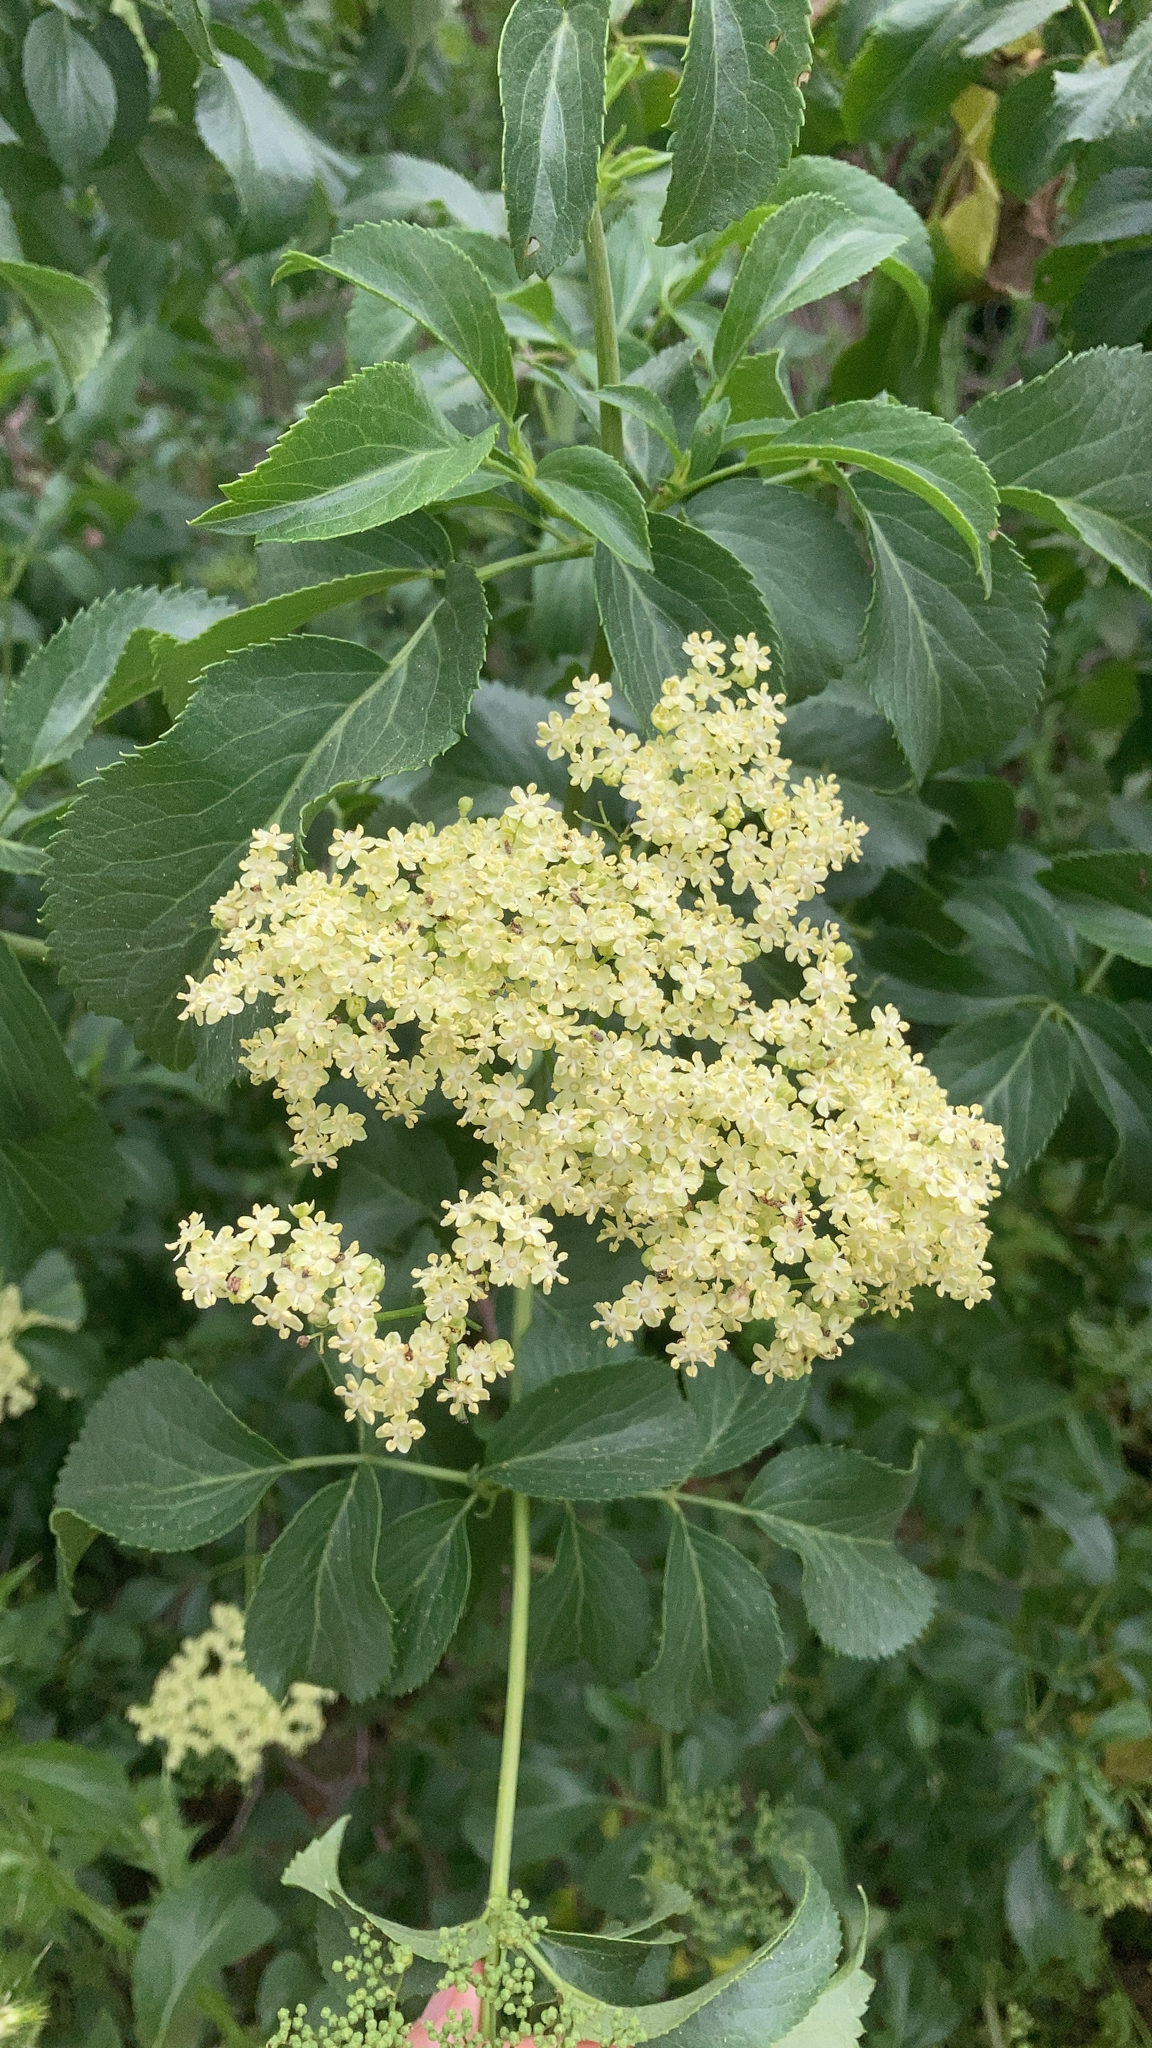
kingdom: Plantae
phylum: Tracheophyta
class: Magnoliopsida
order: Dipsacales
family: Viburnaceae
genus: Sambucus
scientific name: Sambucus cerulea
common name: Blue elder
